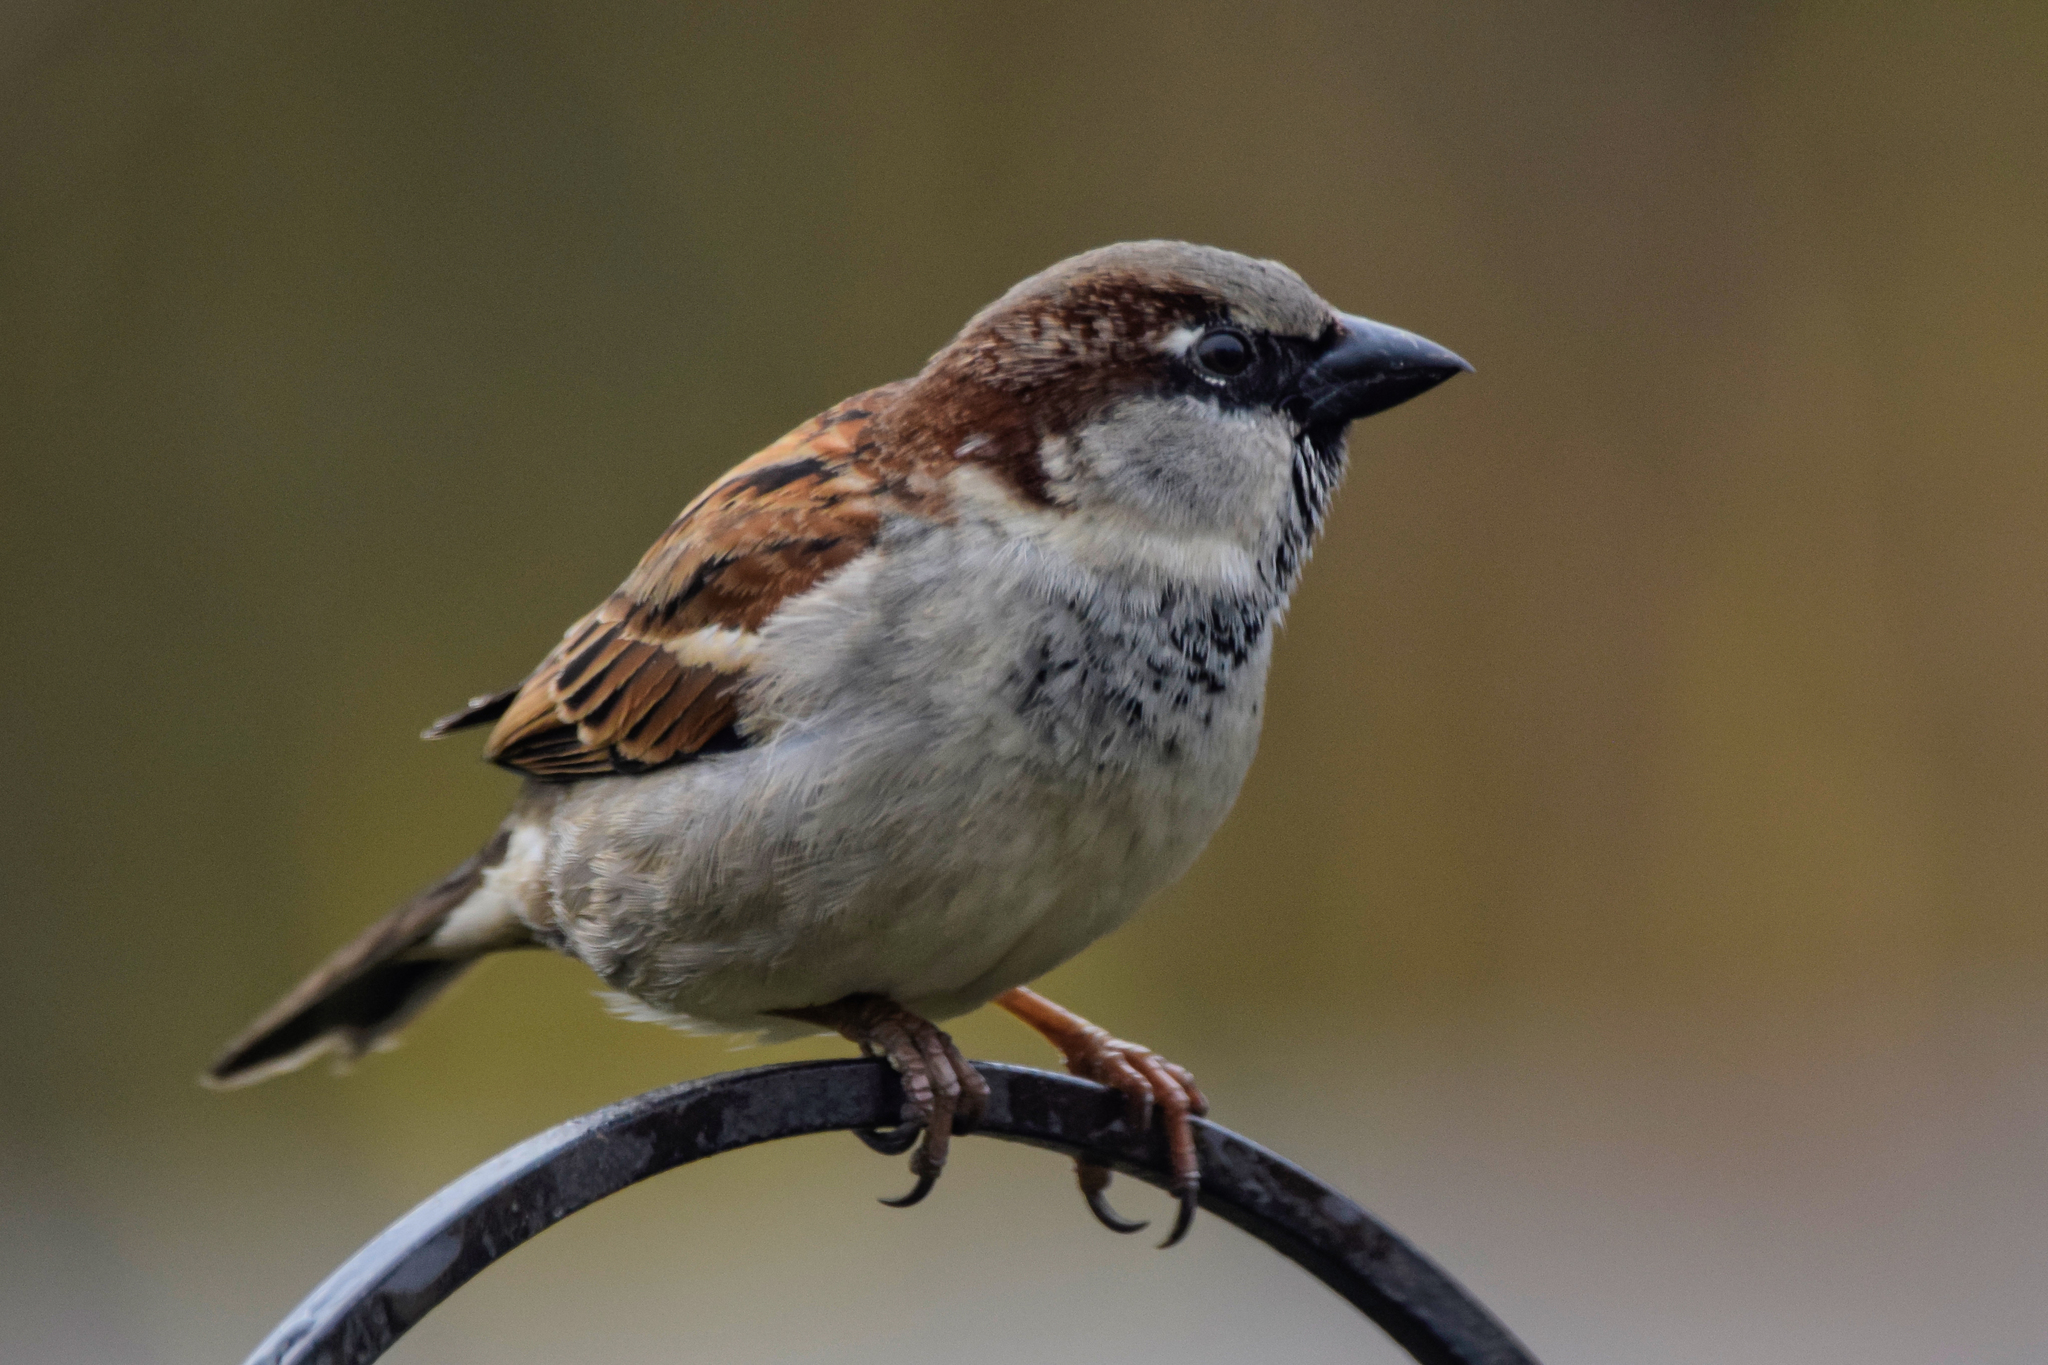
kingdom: Animalia
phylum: Chordata
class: Aves
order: Passeriformes
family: Passeridae
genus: Passer
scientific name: Passer domesticus
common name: House sparrow
